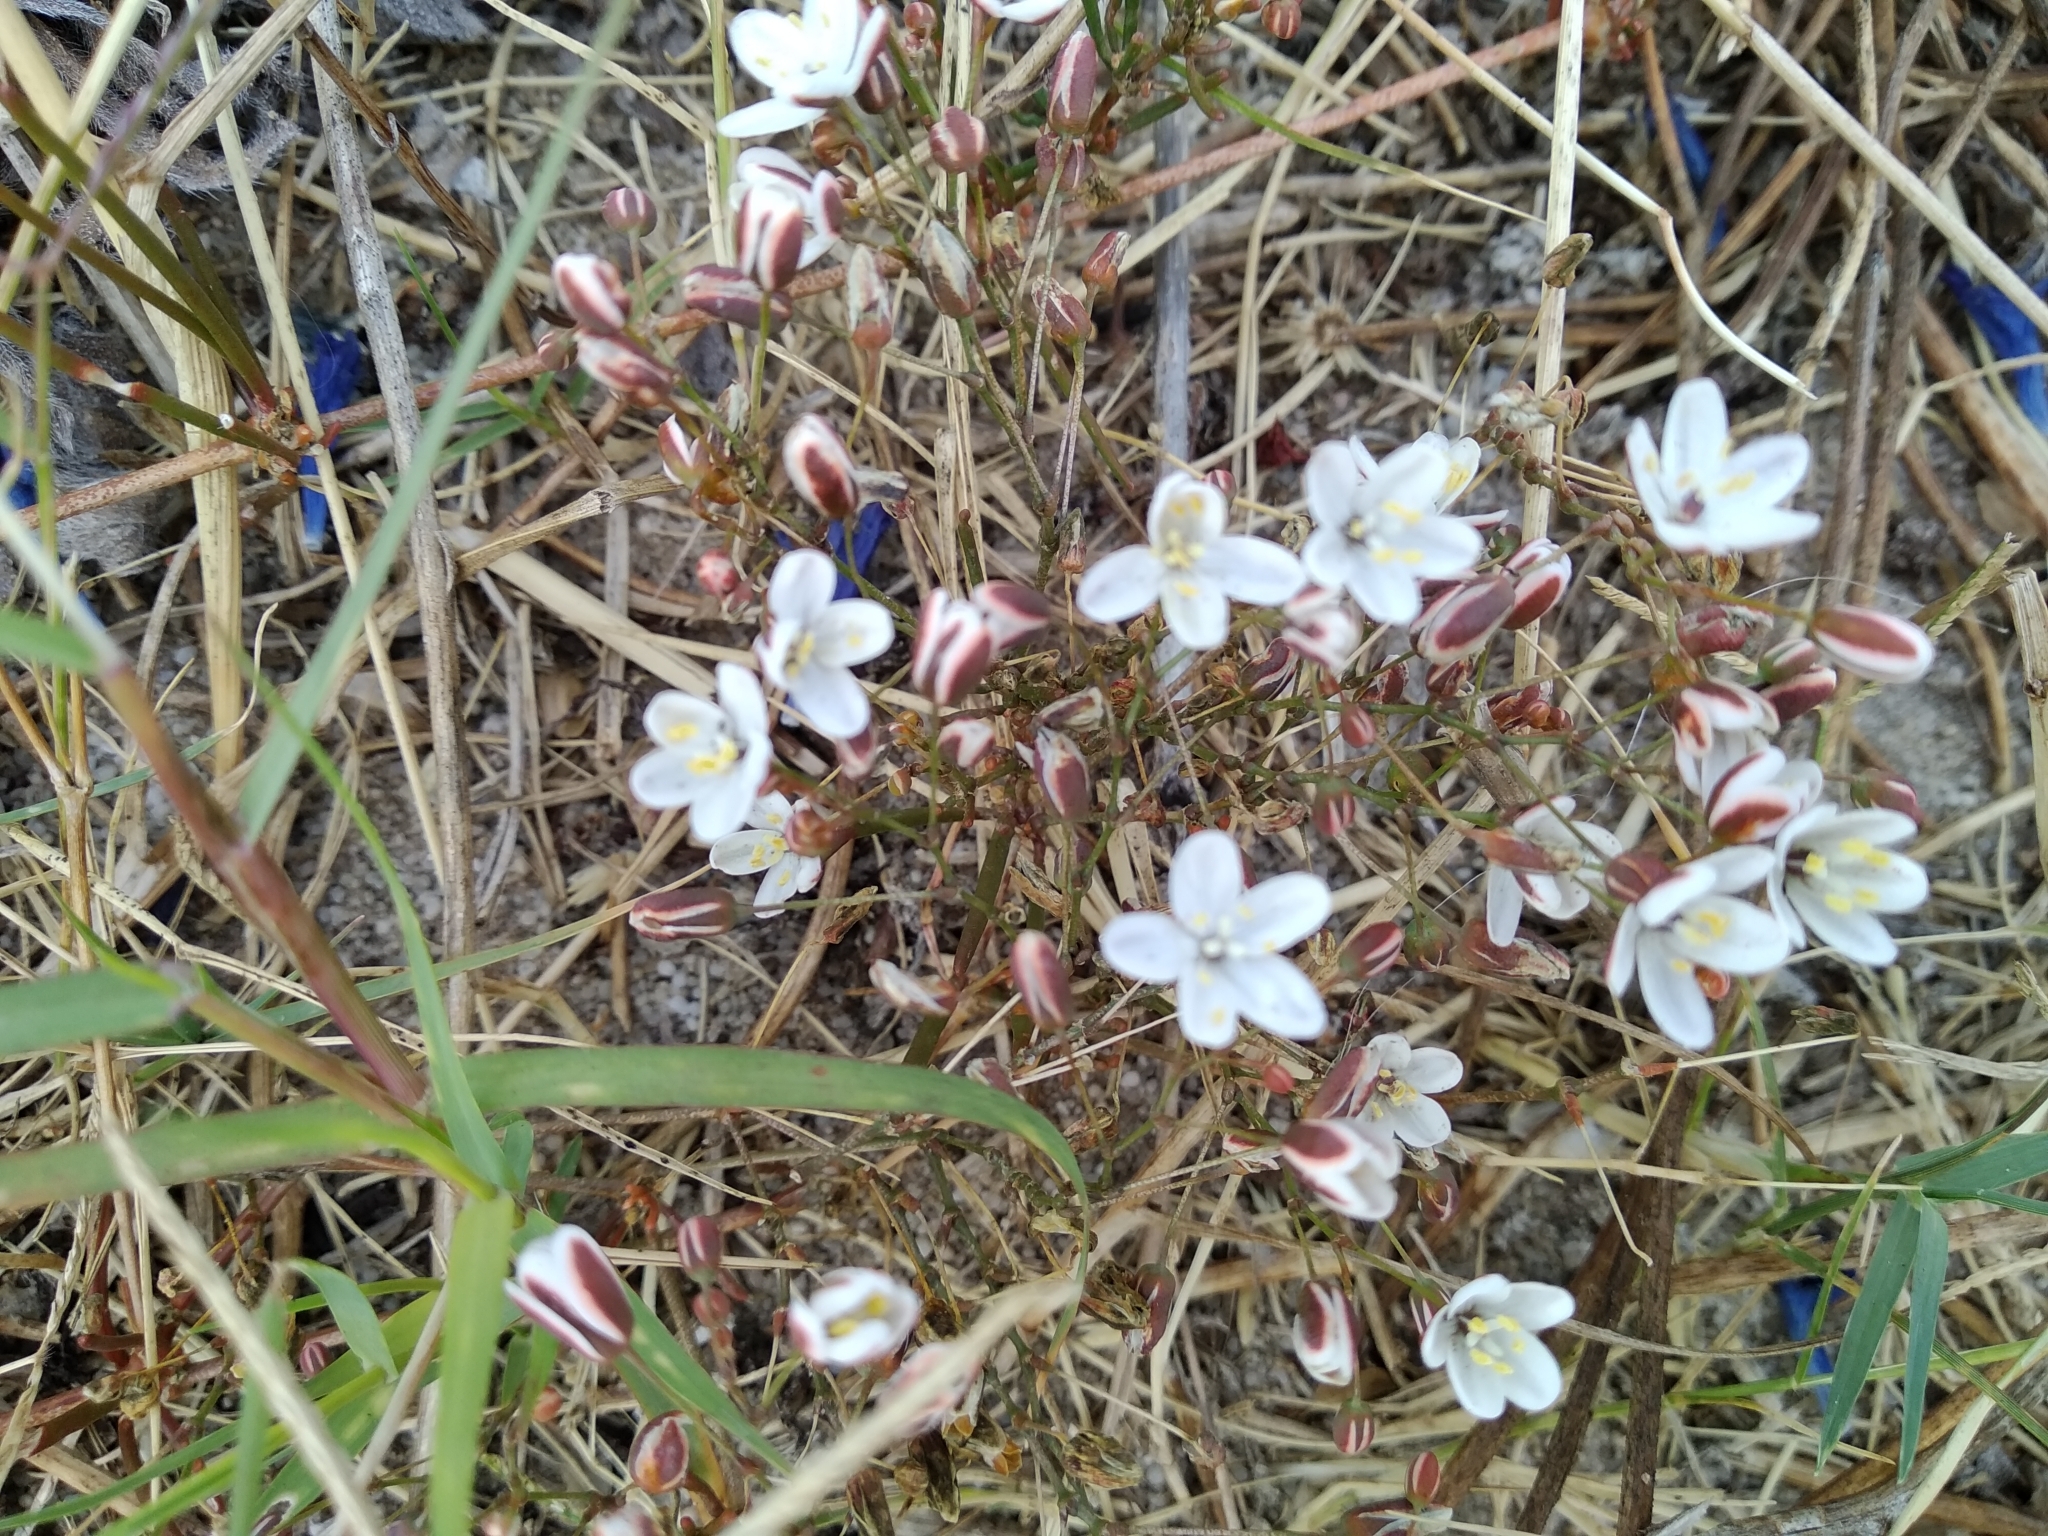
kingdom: Plantae
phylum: Tracheophyta
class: Magnoliopsida
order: Caryophyllales
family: Molluginaceae
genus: Pharnaceum
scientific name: Pharnaceum lineare
